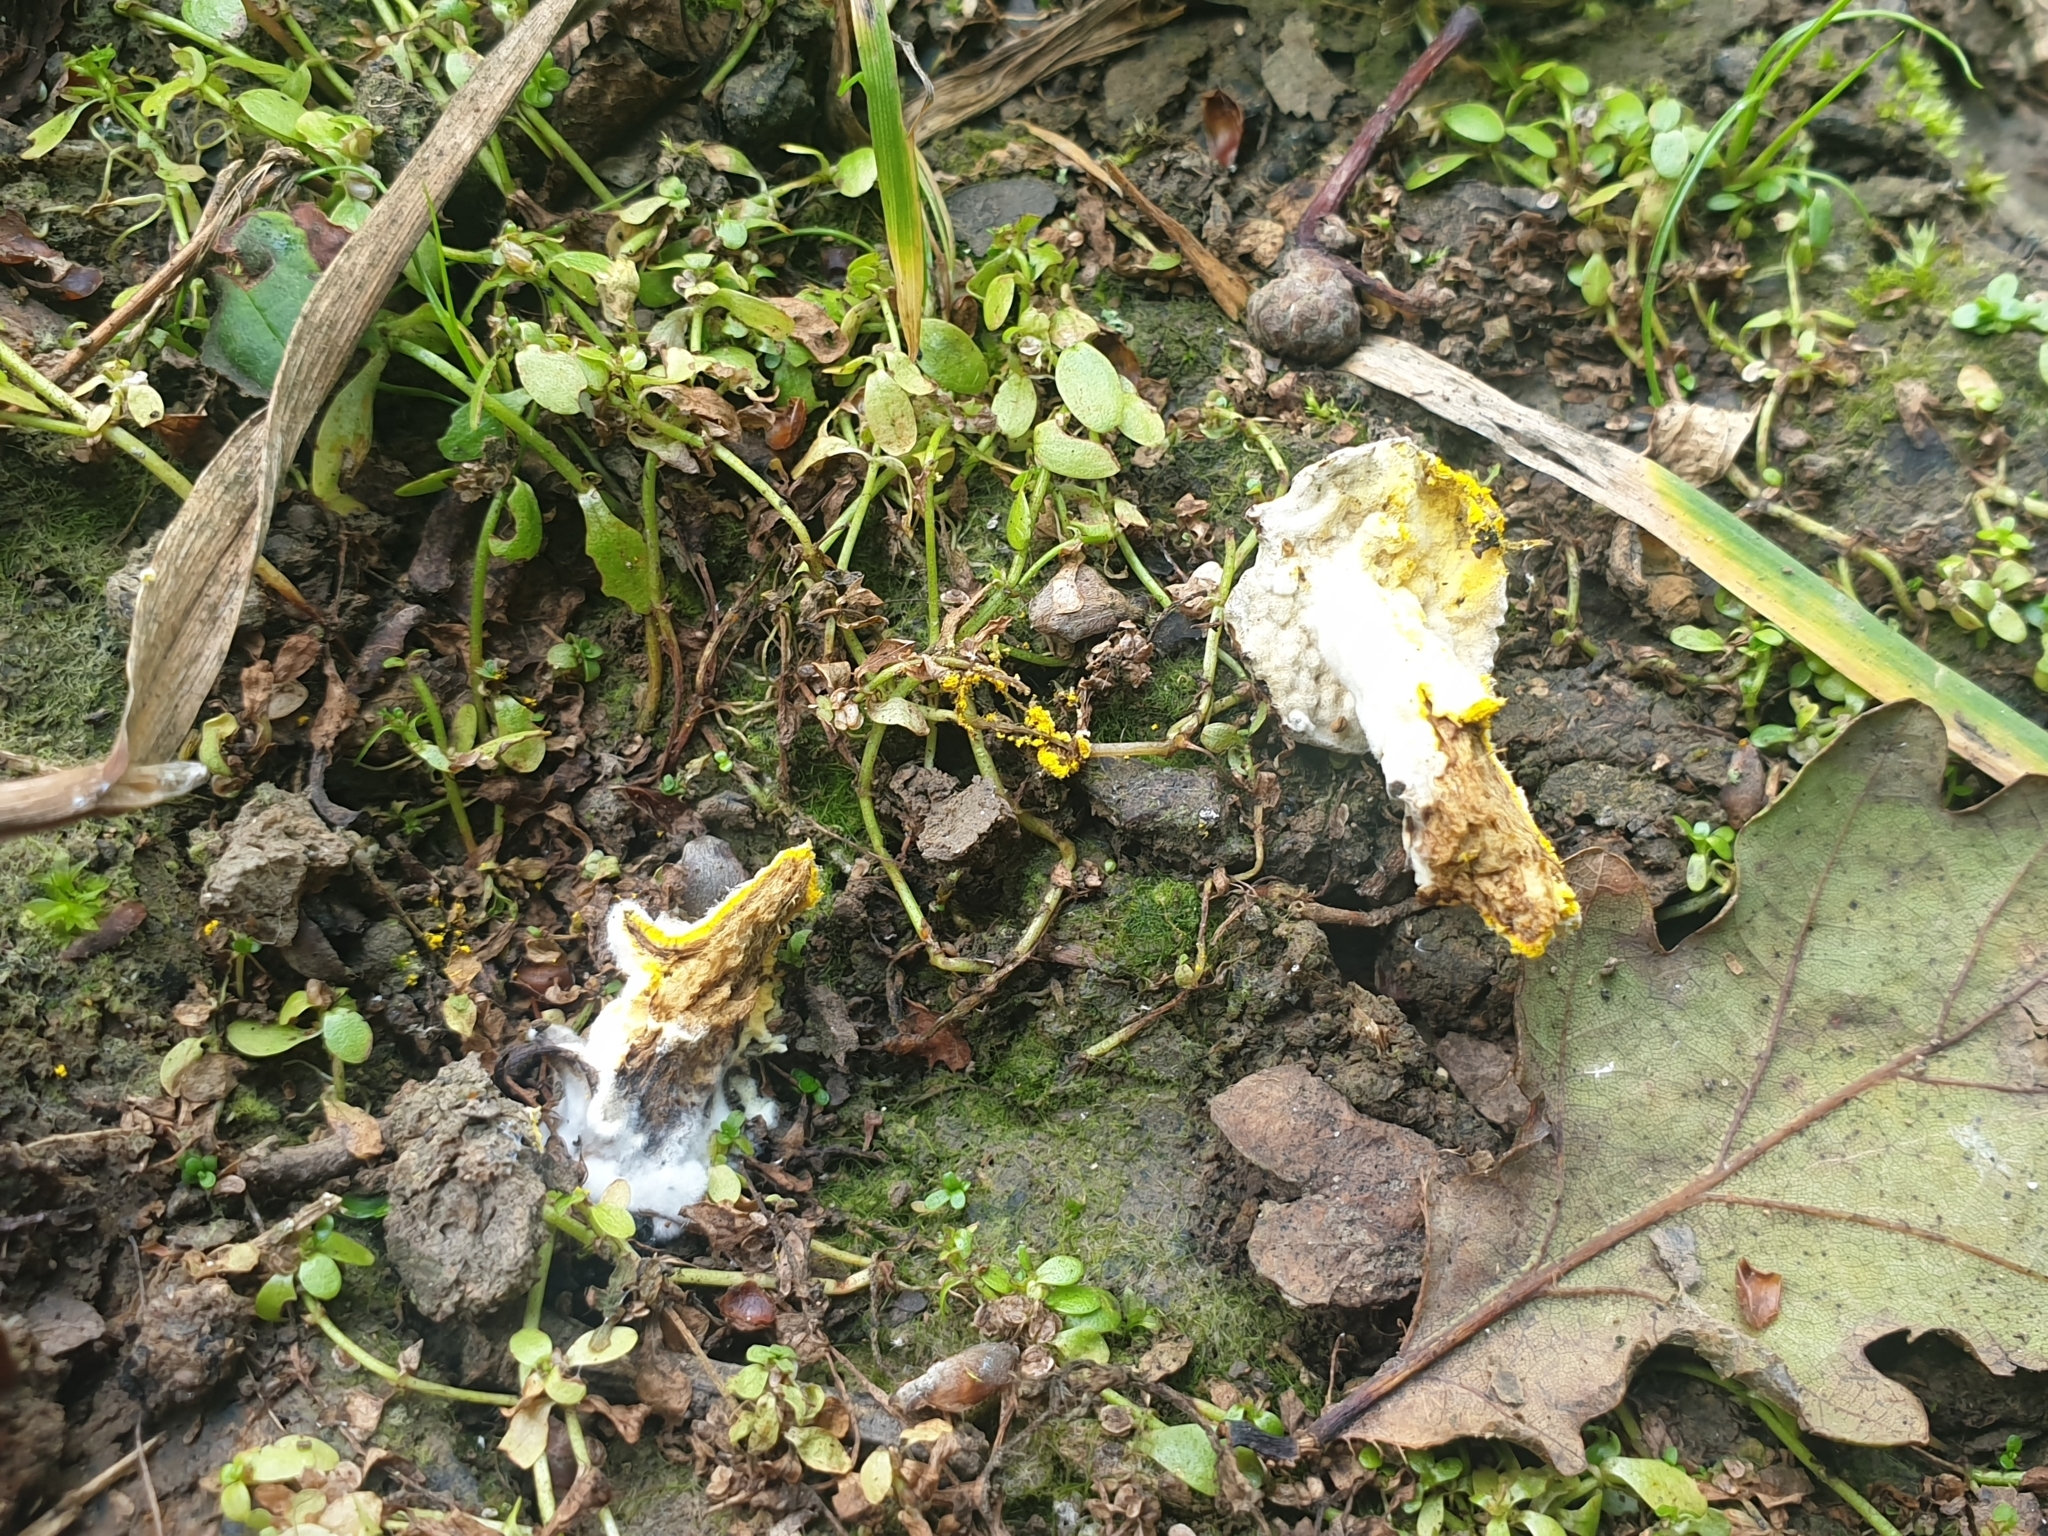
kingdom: Fungi
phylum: Ascomycota
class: Sordariomycetes
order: Hypocreales
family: Hypocreaceae
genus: Hypomyces
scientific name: Hypomyces chrysospermus
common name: Bolete mould
